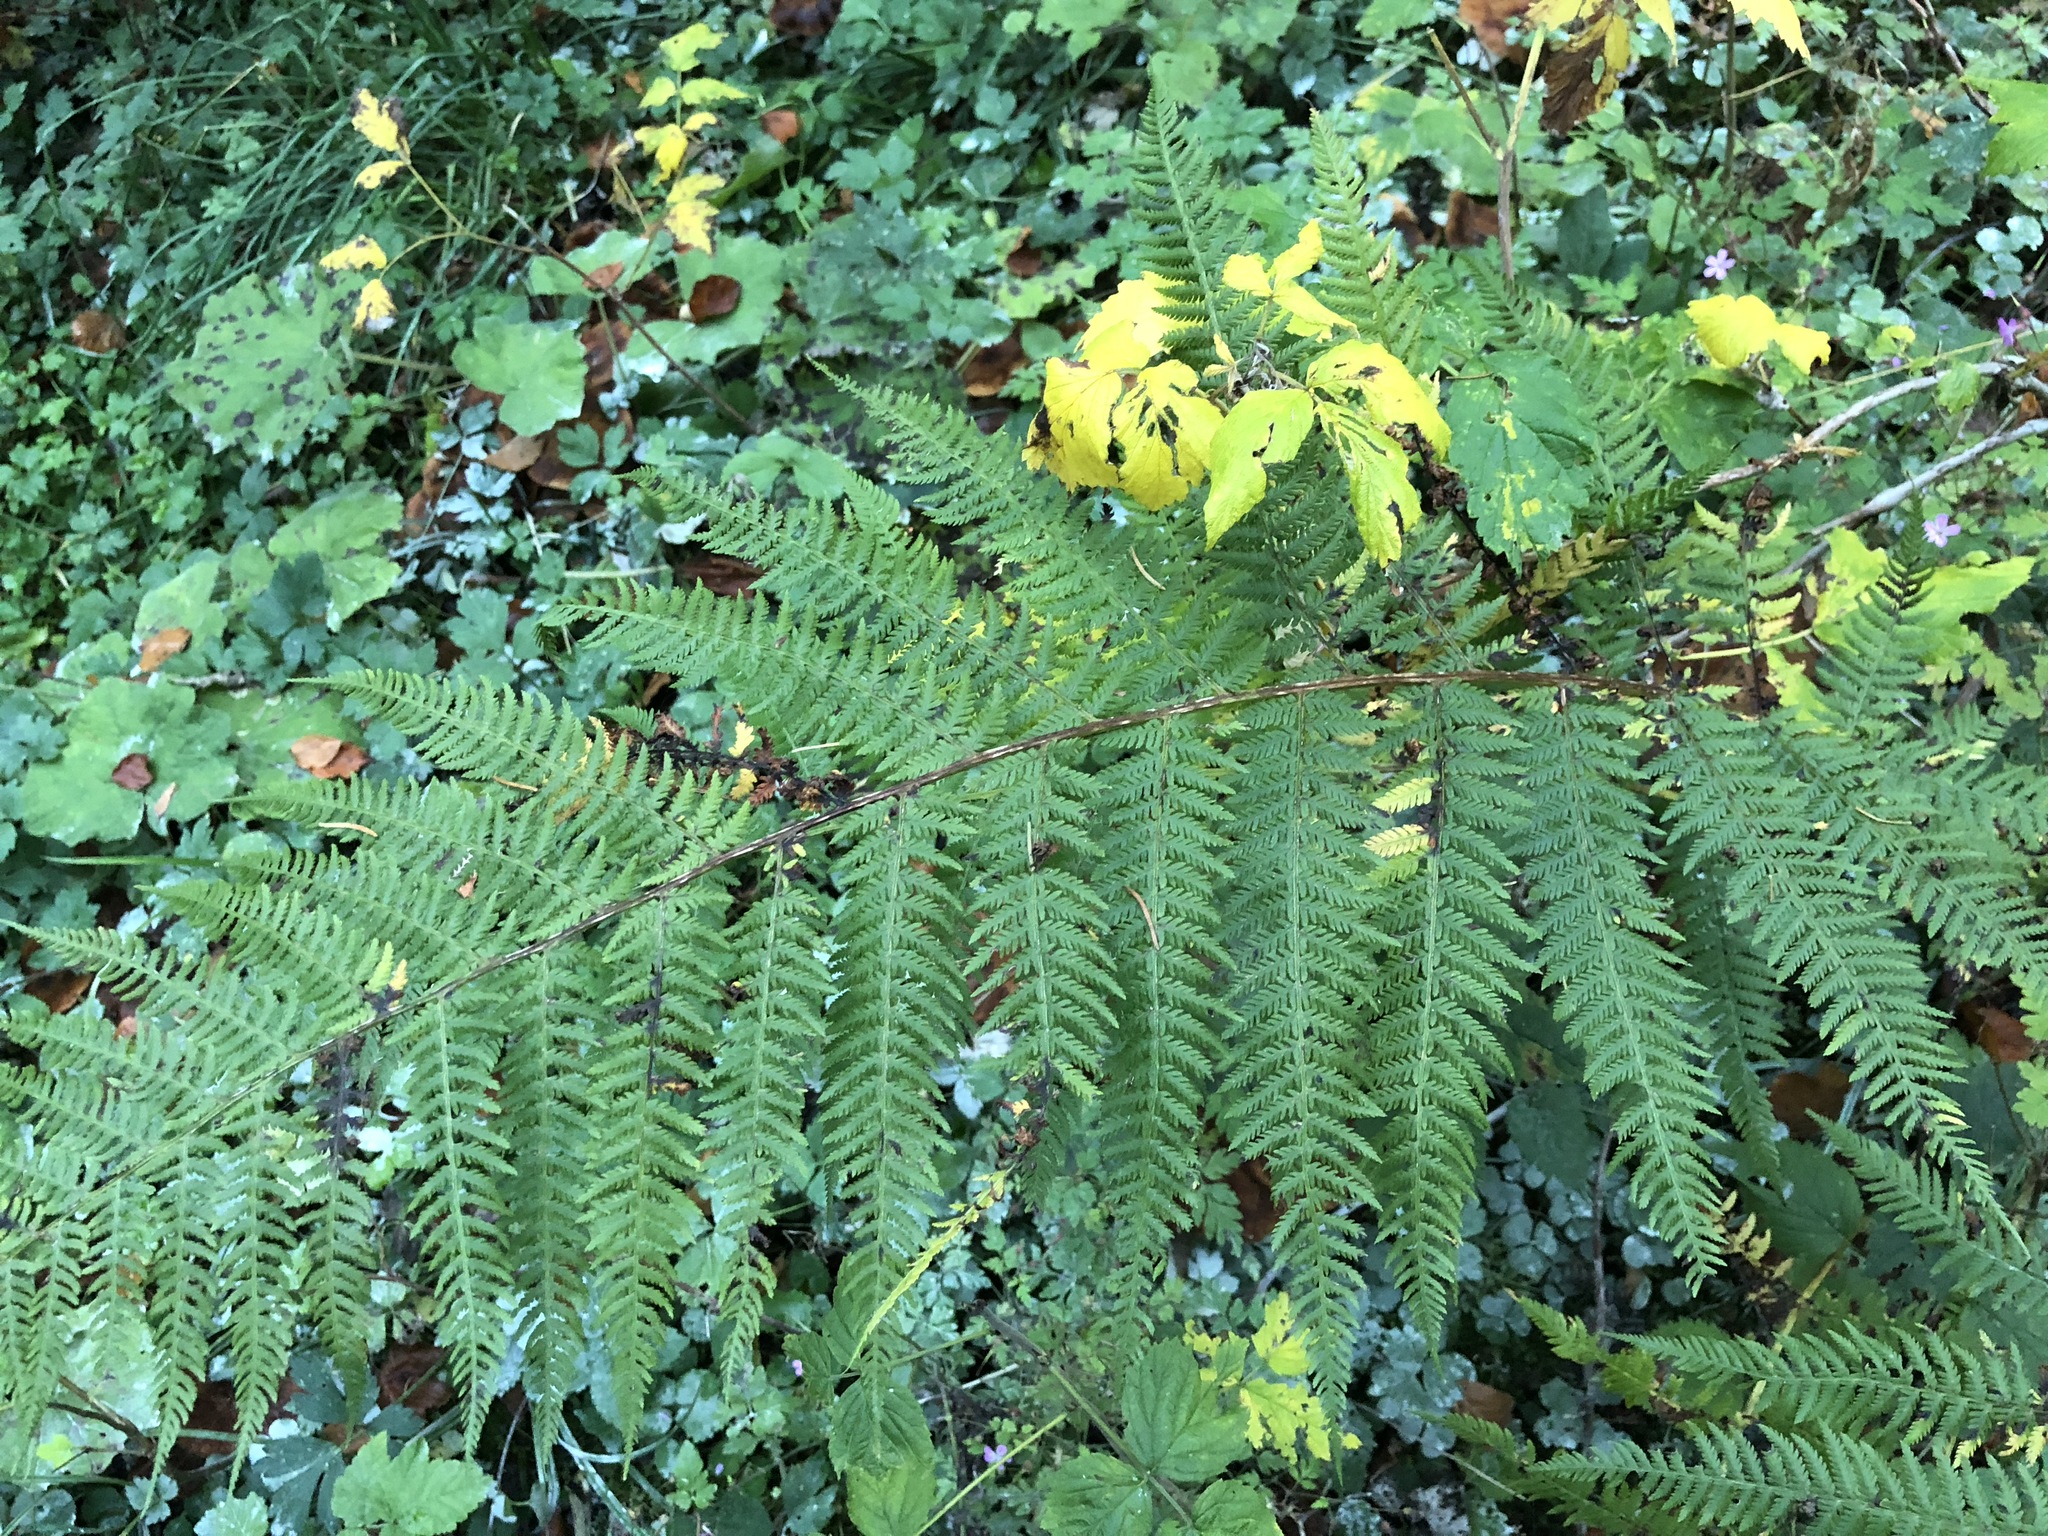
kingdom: Plantae
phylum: Tracheophyta
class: Polypodiopsida
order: Polypodiales
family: Athyriaceae
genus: Athyrium
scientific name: Athyrium filix-femina
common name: Lady fern
